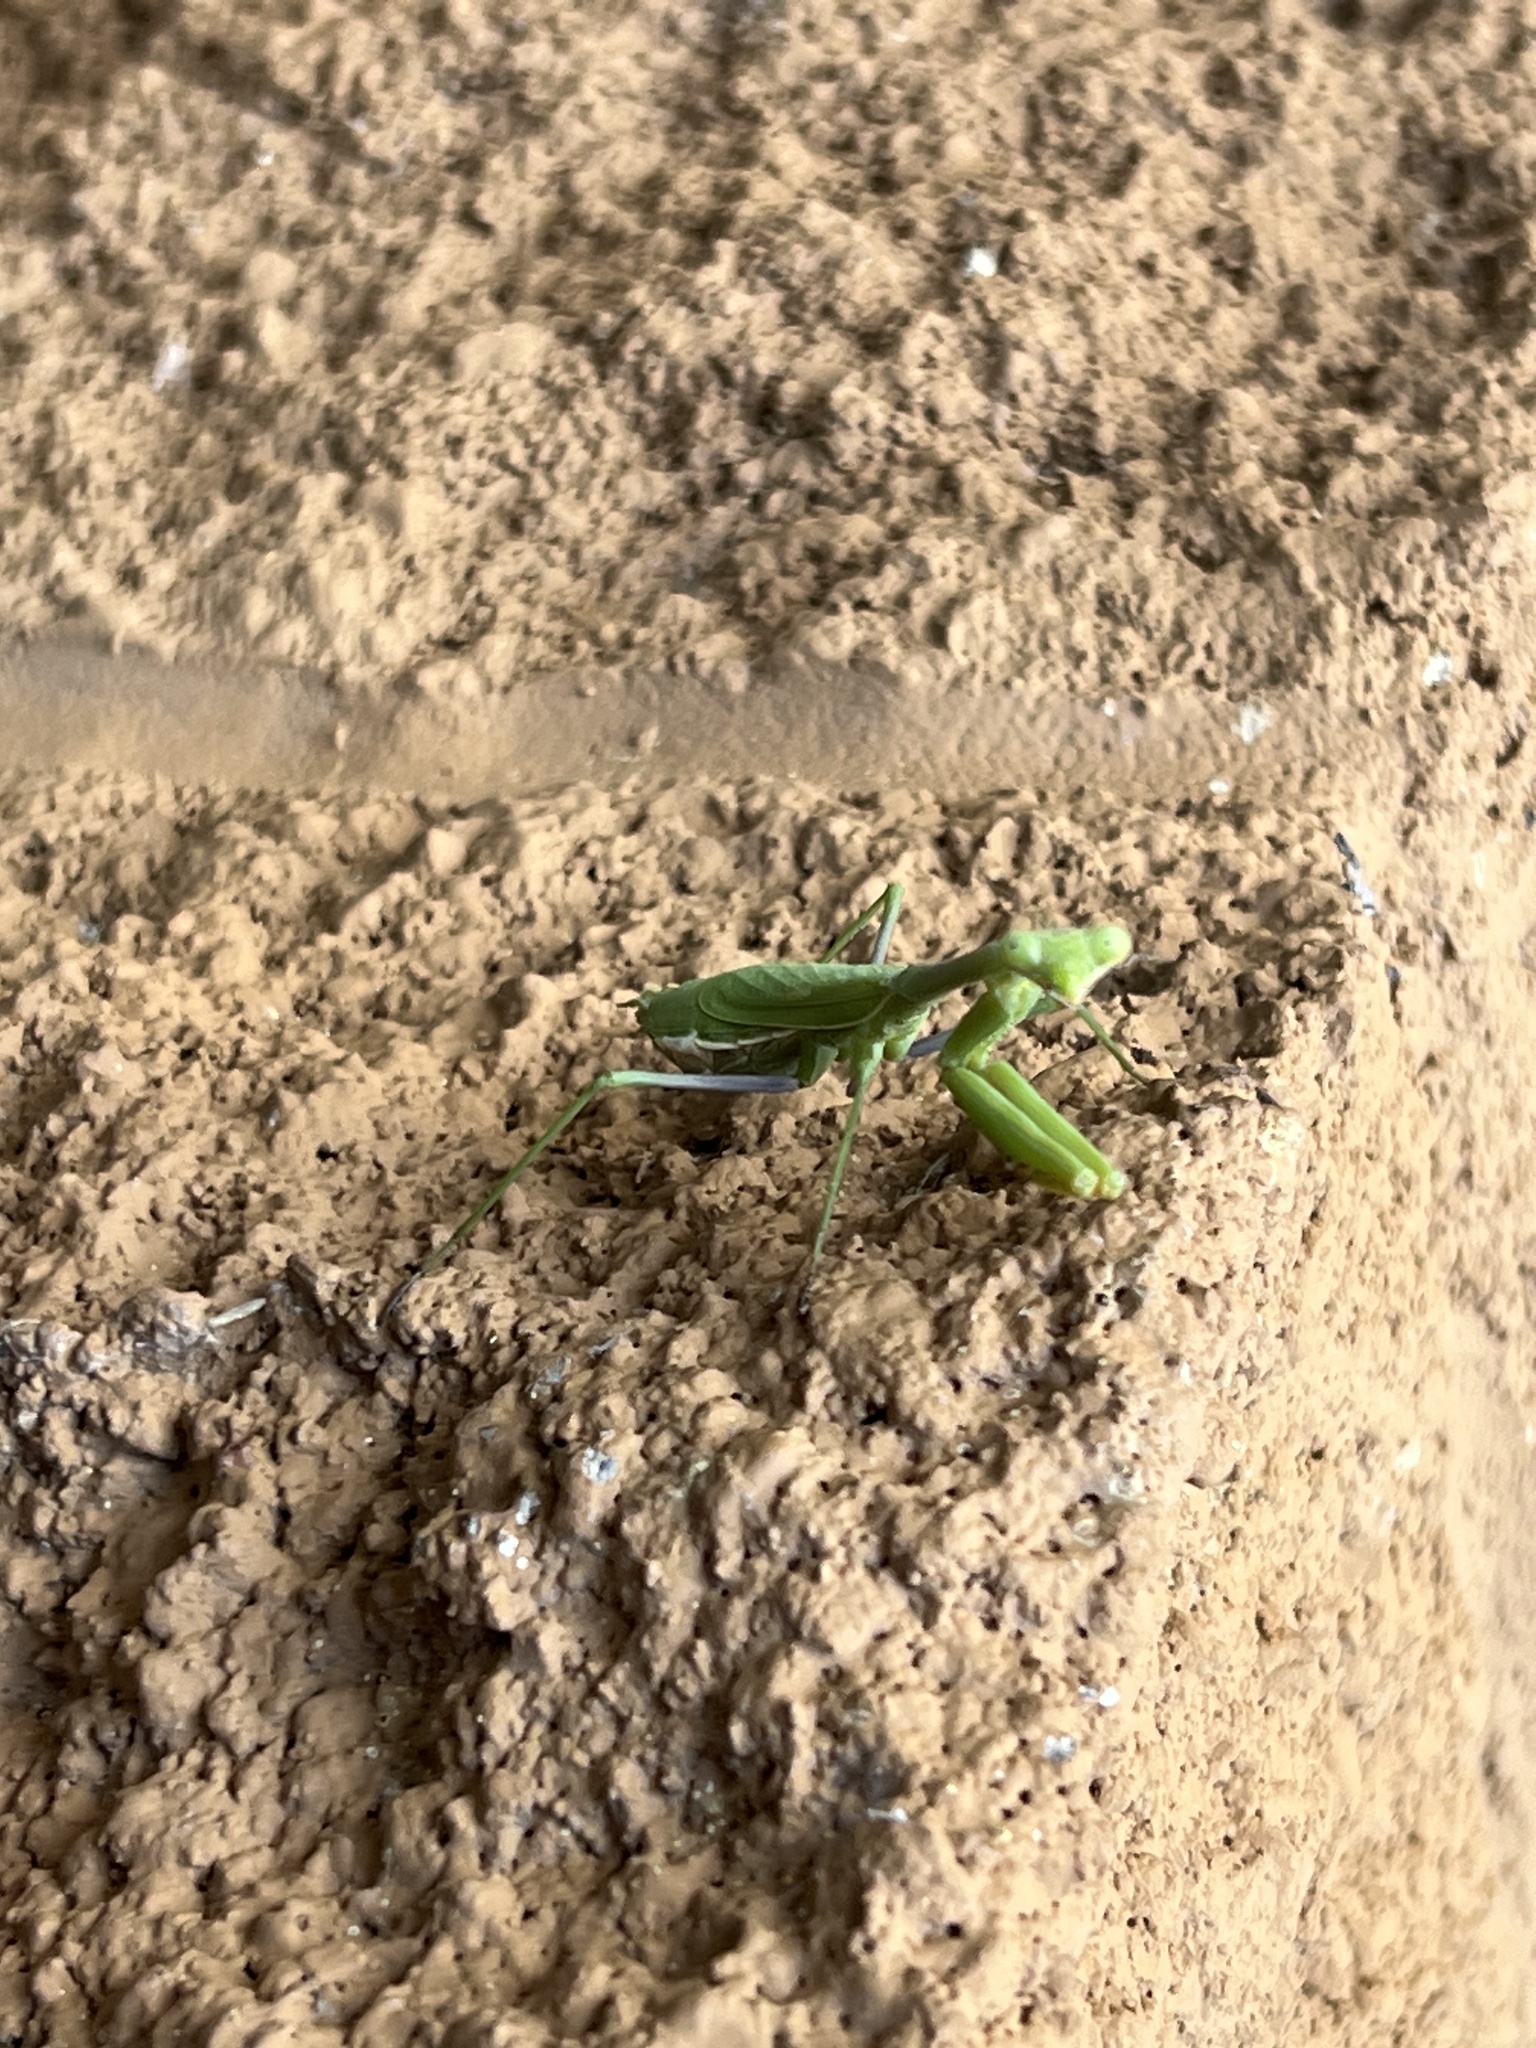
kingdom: Animalia
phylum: Arthropoda
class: Insecta
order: Mantodea
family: Mantidae
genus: Stagmomantis
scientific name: Stagmomantis californica
